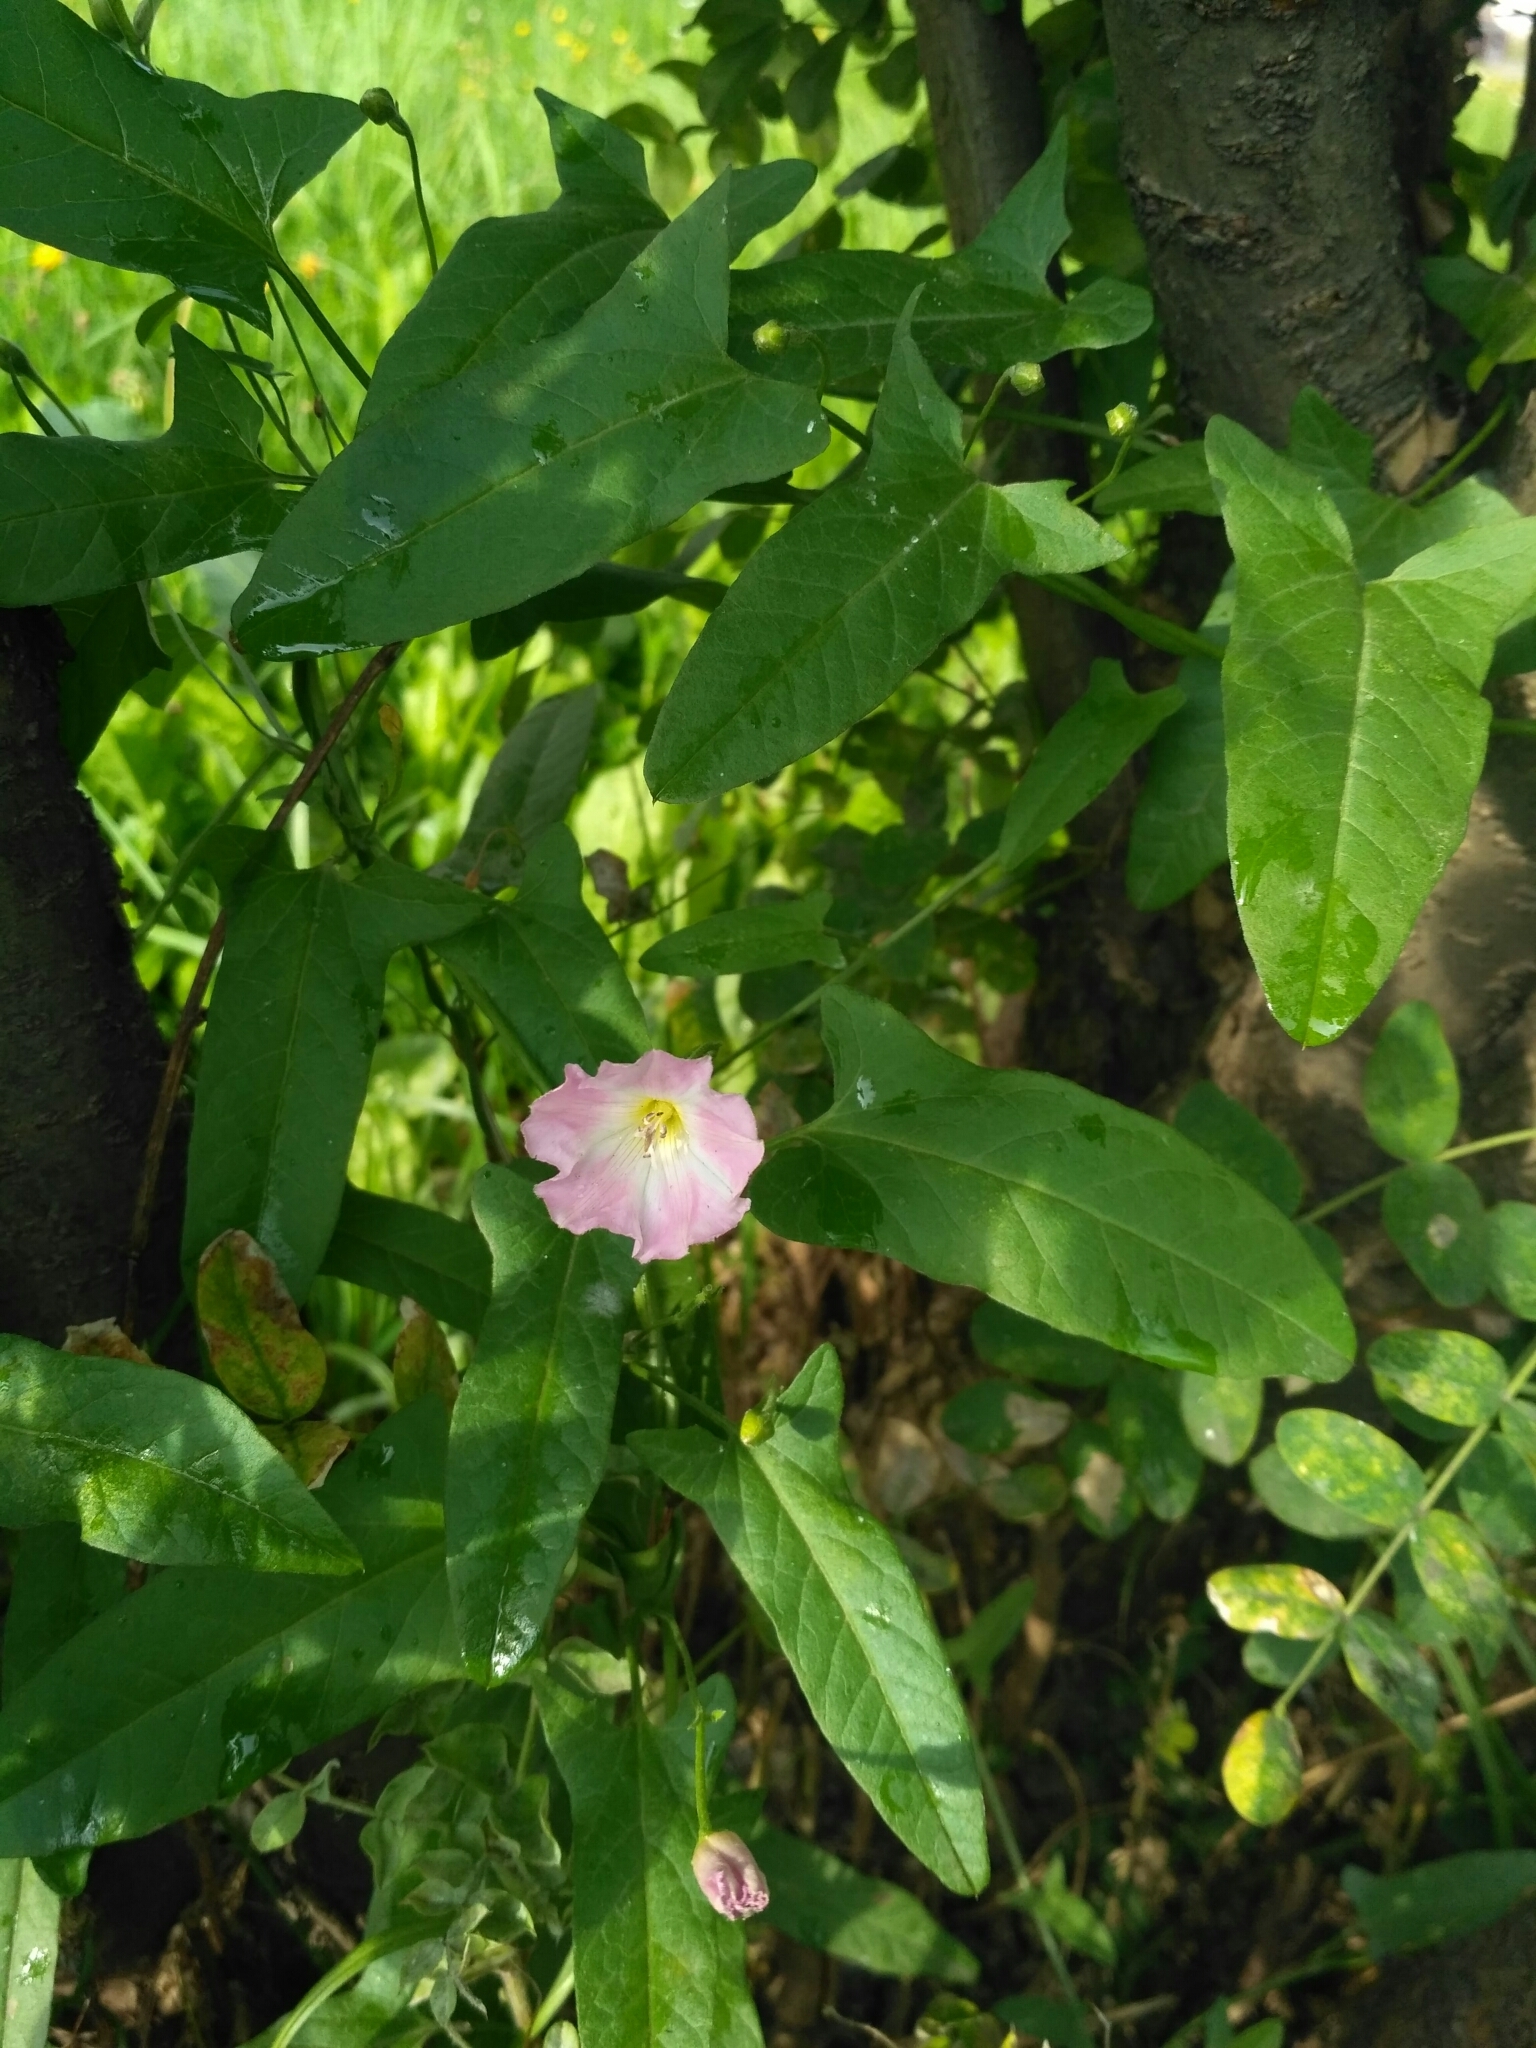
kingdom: Plantae
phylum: Tracheophyta
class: Magnoliopsida
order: Solanales
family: Convolvulaceae
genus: Convolvulus
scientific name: Convolvulus arvensis
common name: Field bindweed
